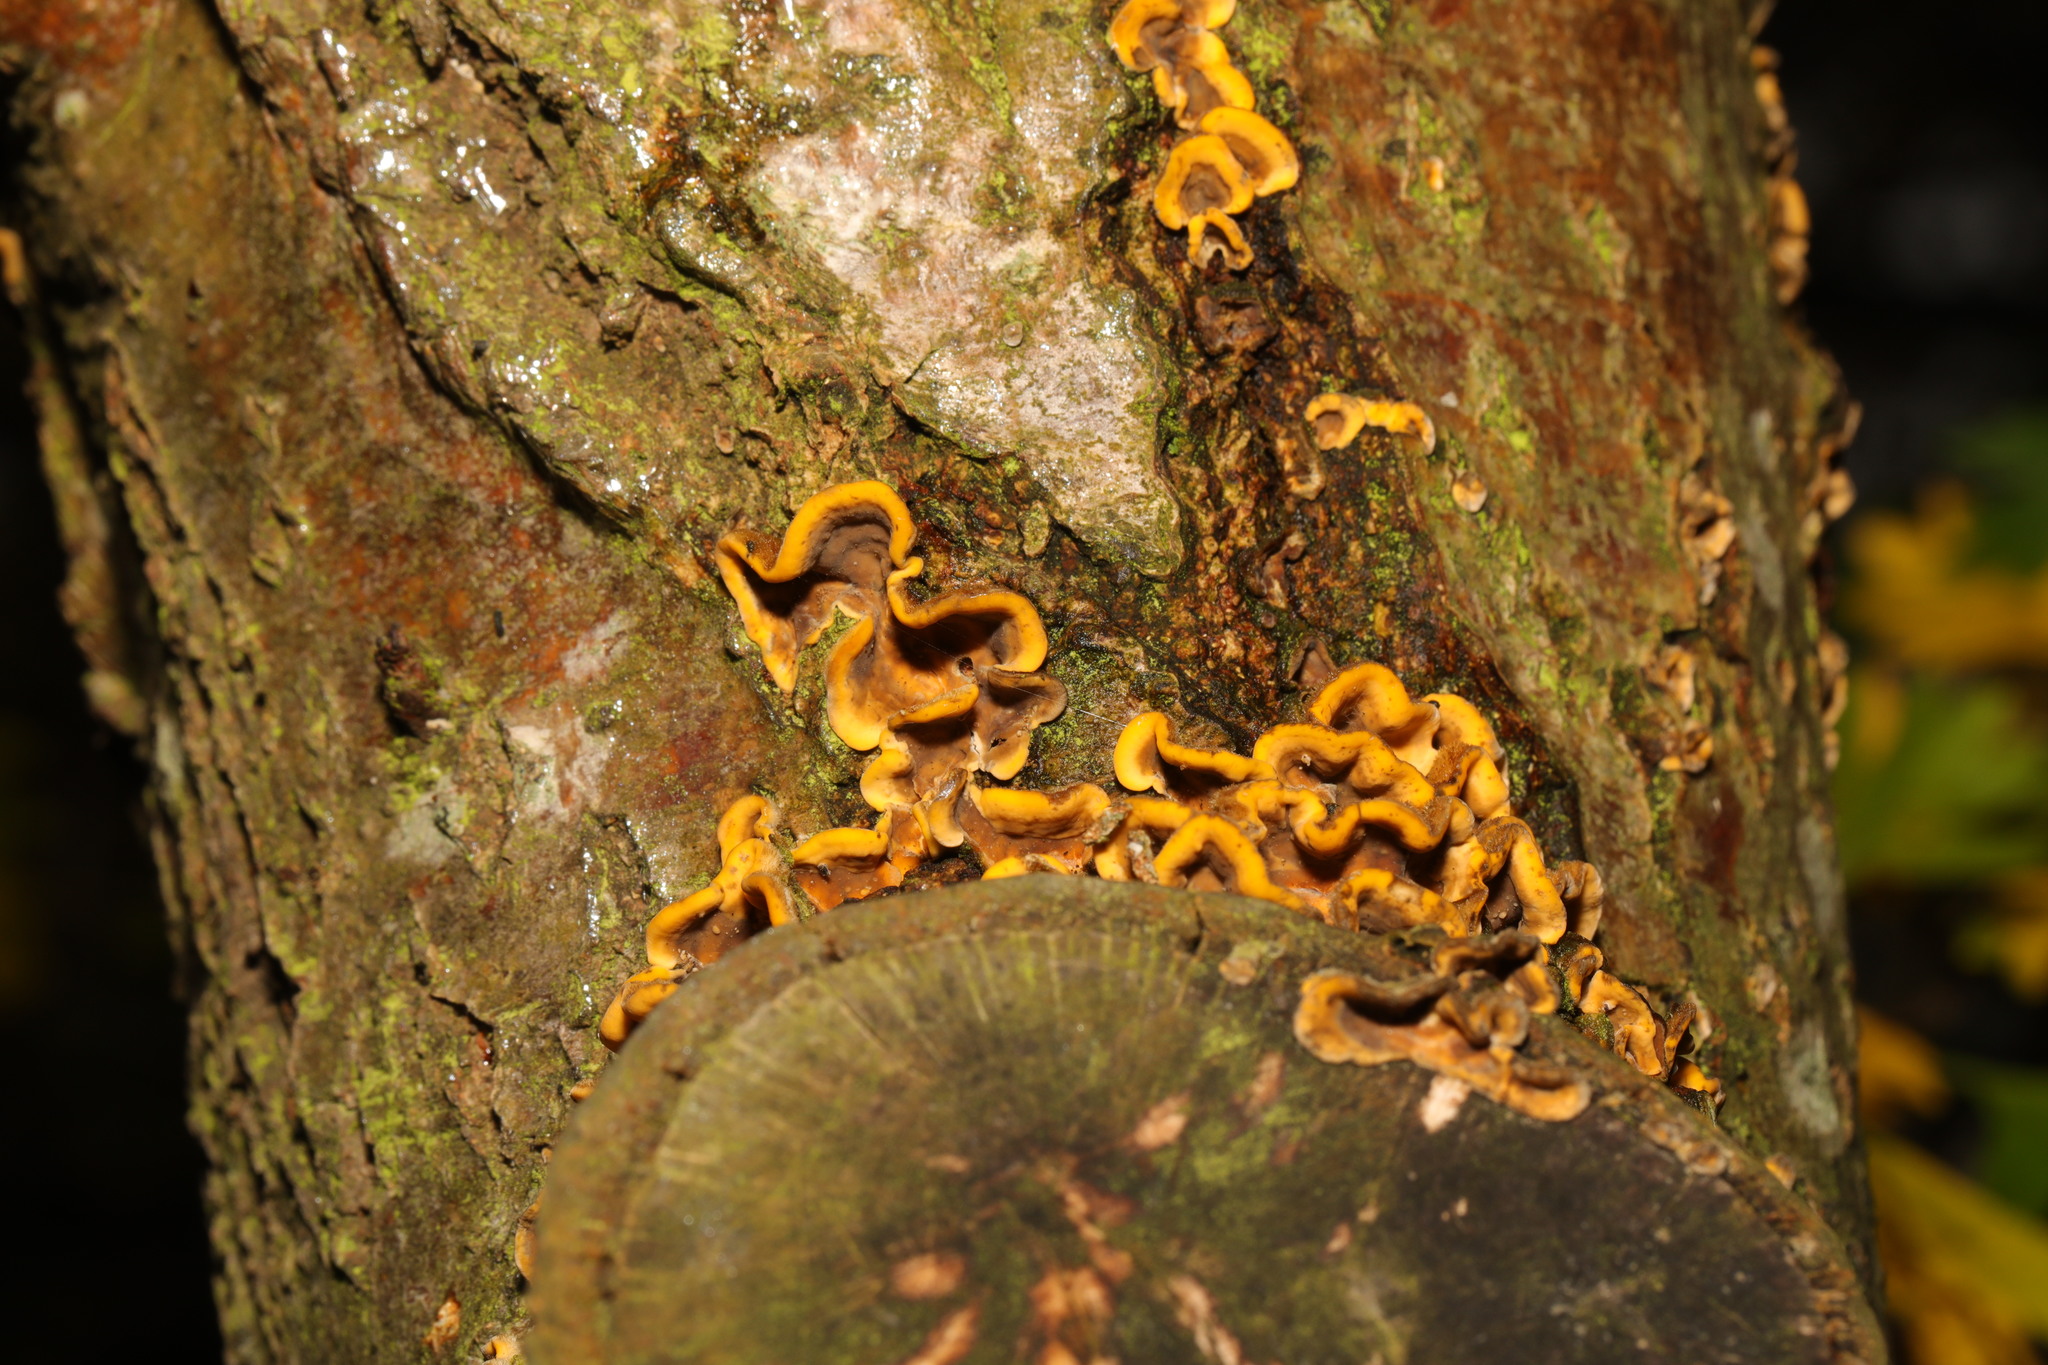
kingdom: Fungi
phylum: Basidiomycota
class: Agaricomycetes
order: Russulales
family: Stereaceae
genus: Stereum
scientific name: Stereum hirsutum
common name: Hairy curtain crust
